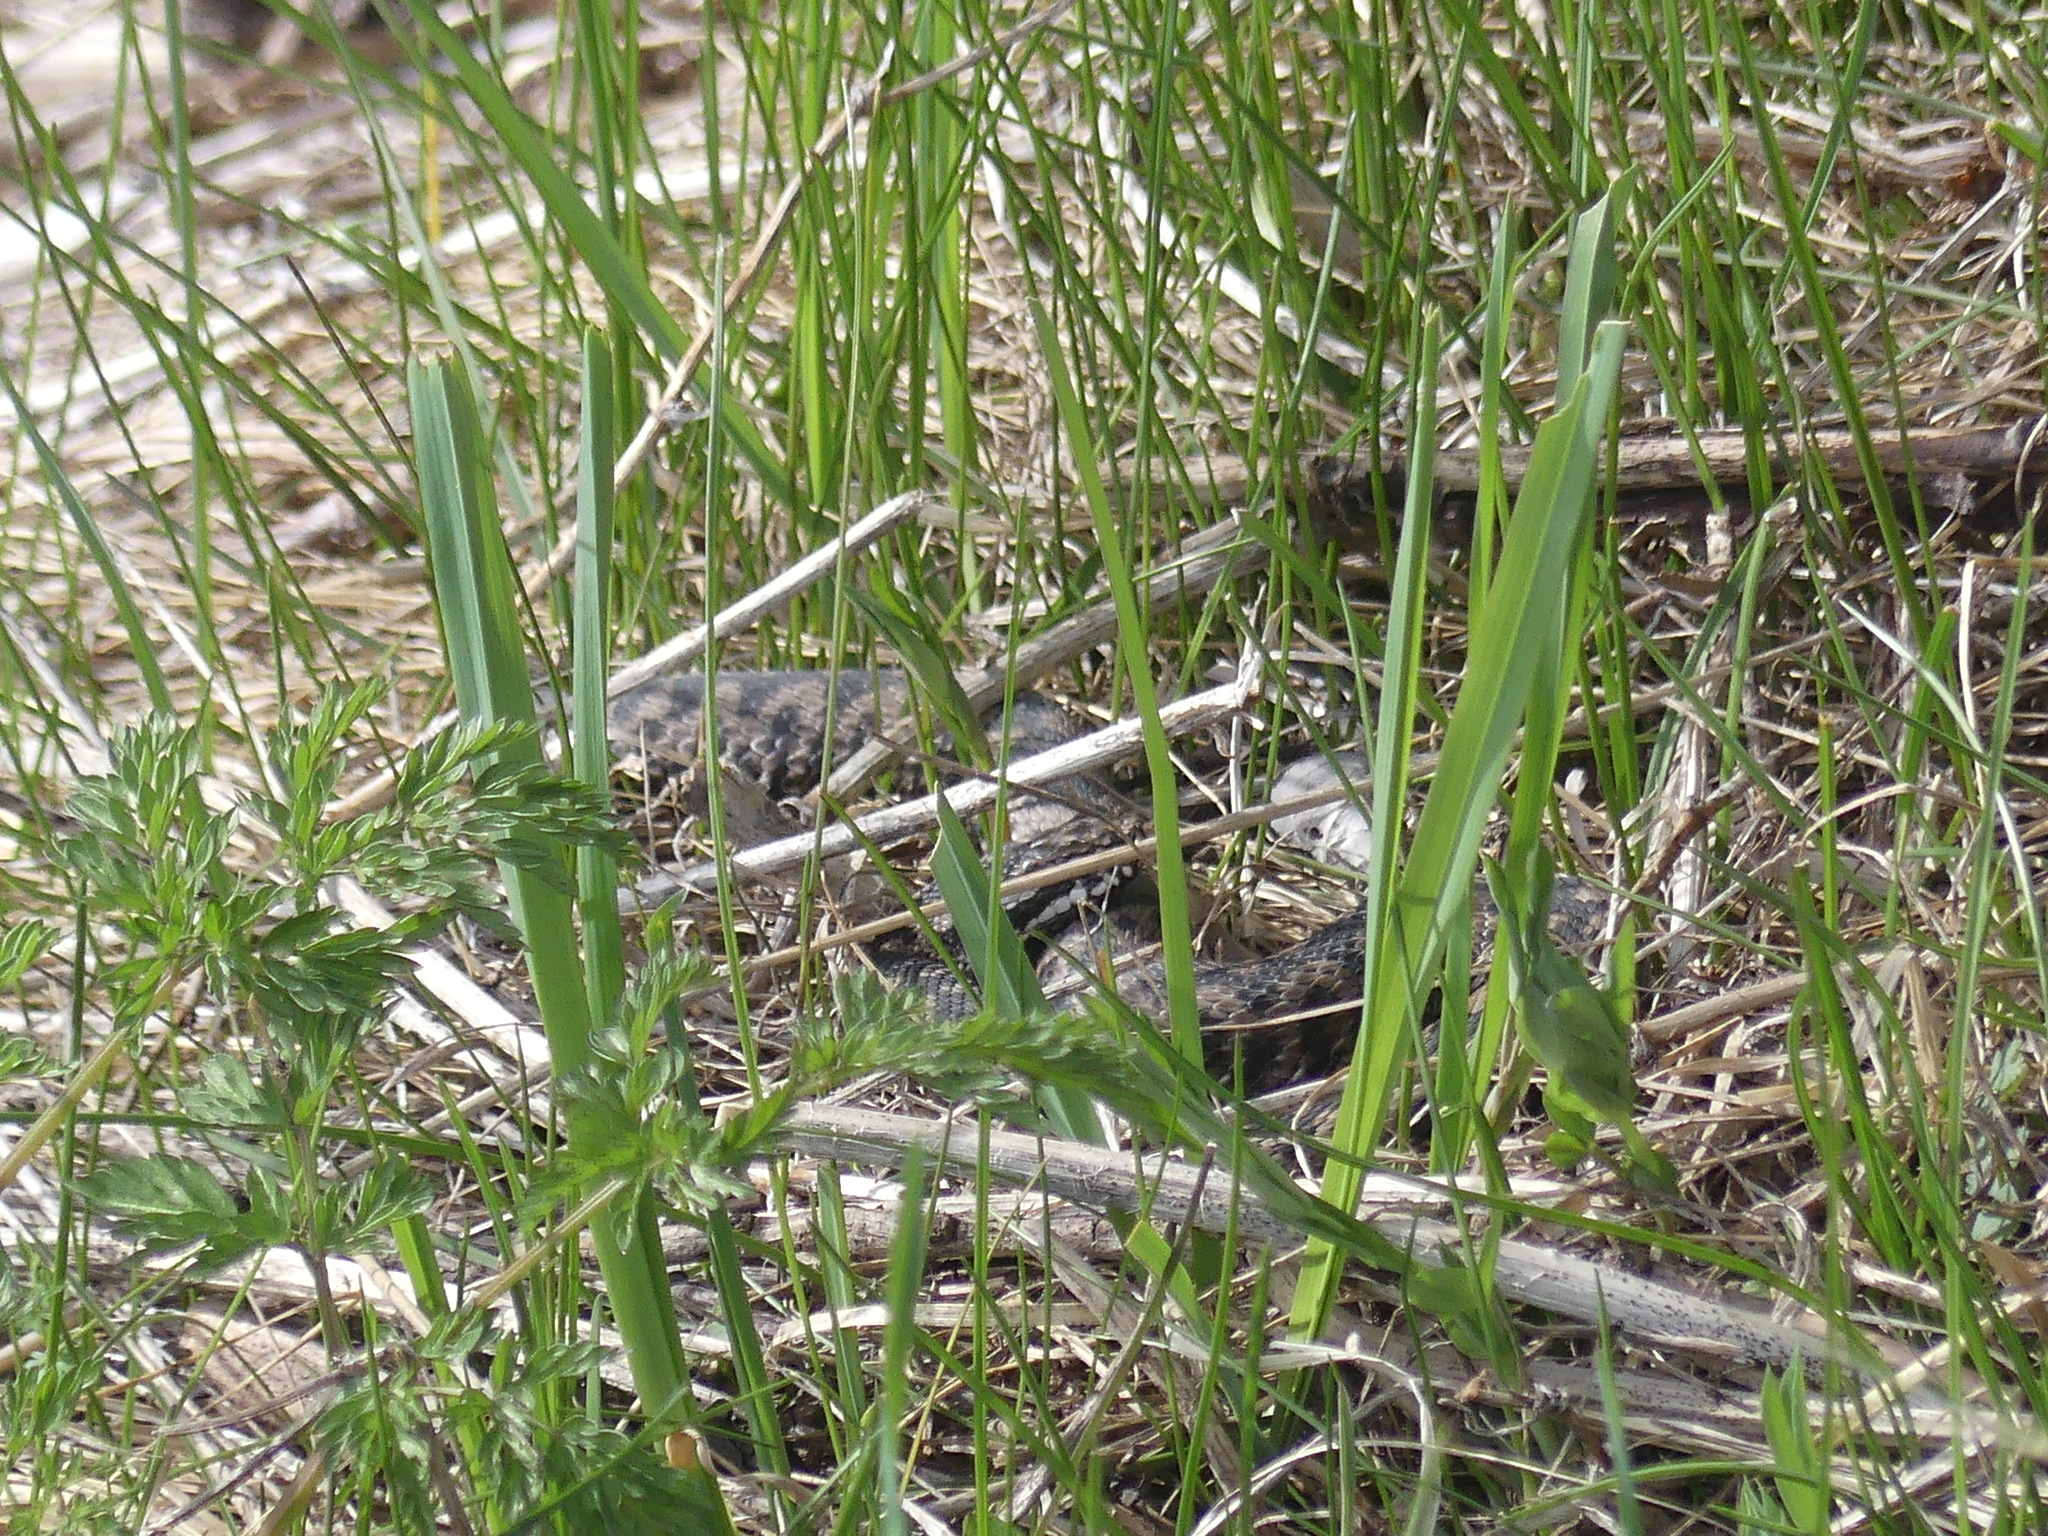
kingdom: Animalia
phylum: Chordata
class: Squamata
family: Viperidae
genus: Vipera
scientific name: Vipera berus
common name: Adder
